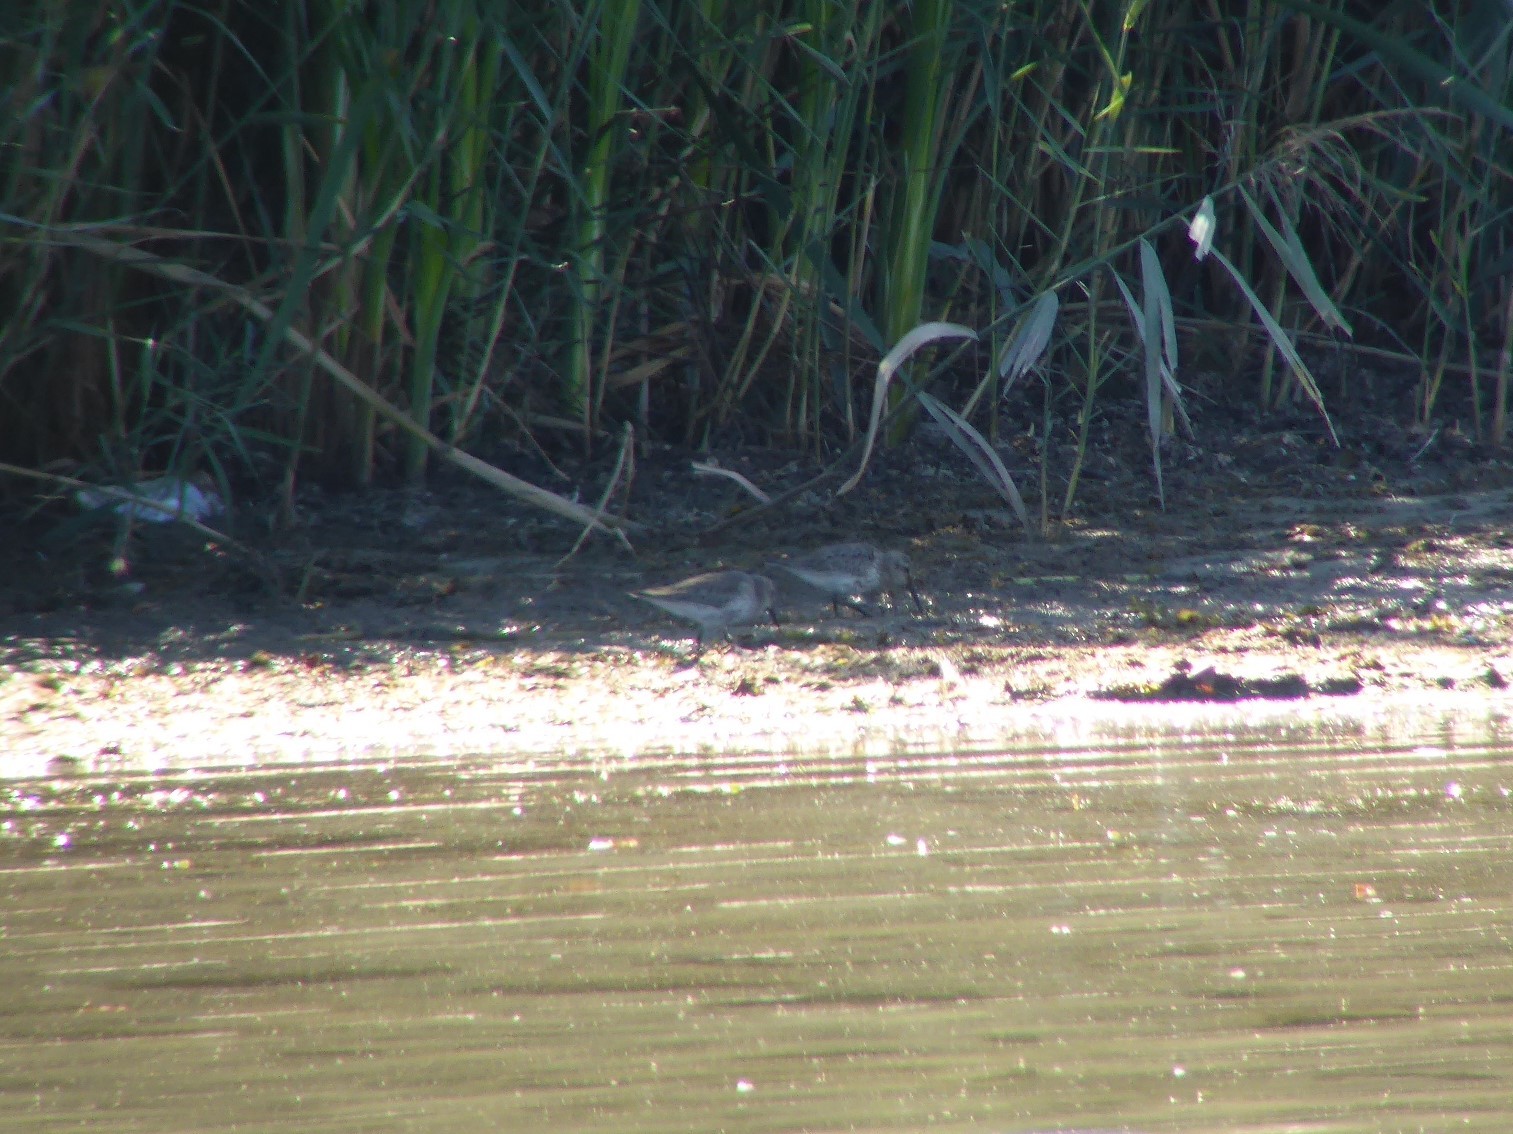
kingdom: Animalia
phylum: Chordata
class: Aves
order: Charadriiformes
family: Scolopacidae
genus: Calidris
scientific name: Calidris alpina
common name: Dunlin
